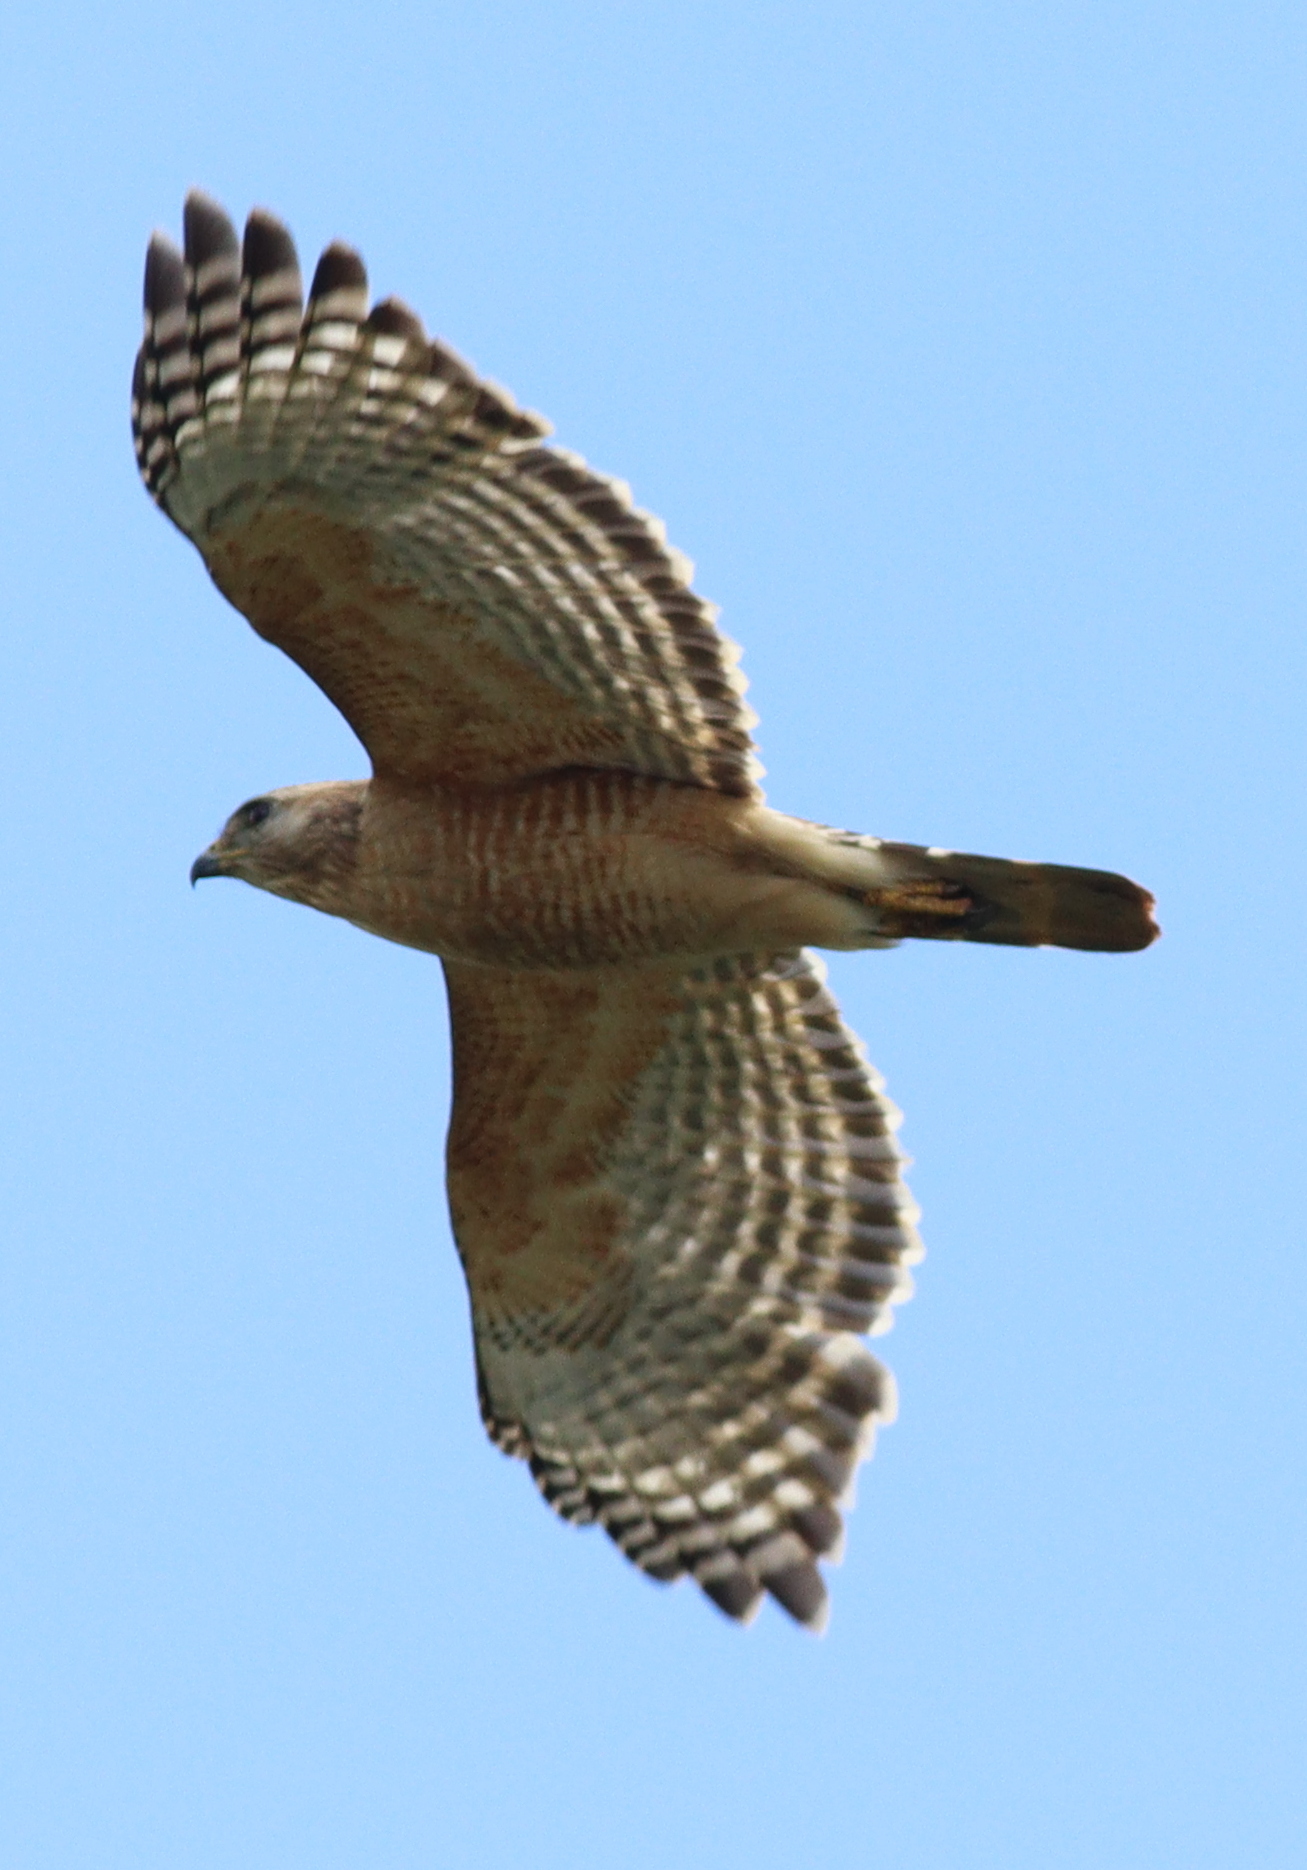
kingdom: Animalia
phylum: Chordata
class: Aves
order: Accipitriformes
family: Accipitridae
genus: Buteo
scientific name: Buteo lineatus
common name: Red-shouldered hawk
